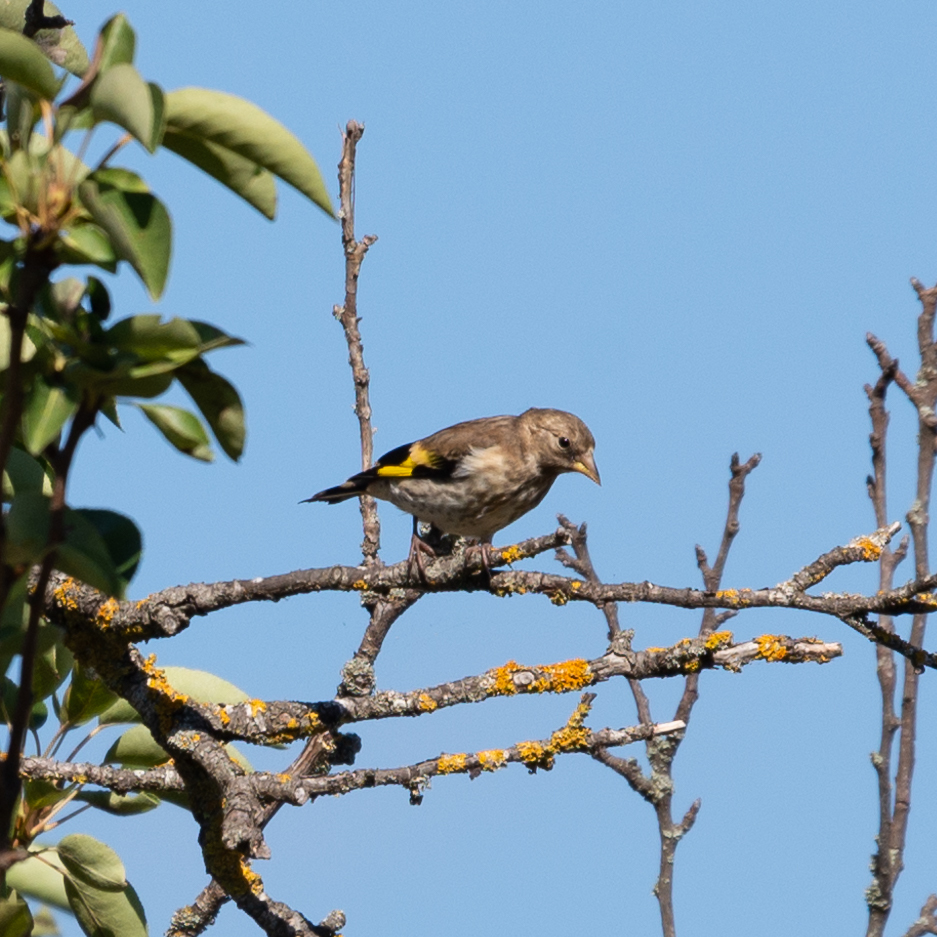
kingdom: Animalia
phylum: Chordata
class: Aves
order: Passeriformes
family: Fringillidae
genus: Carduelis
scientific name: Carduelis carduelis
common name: European goldfinch
